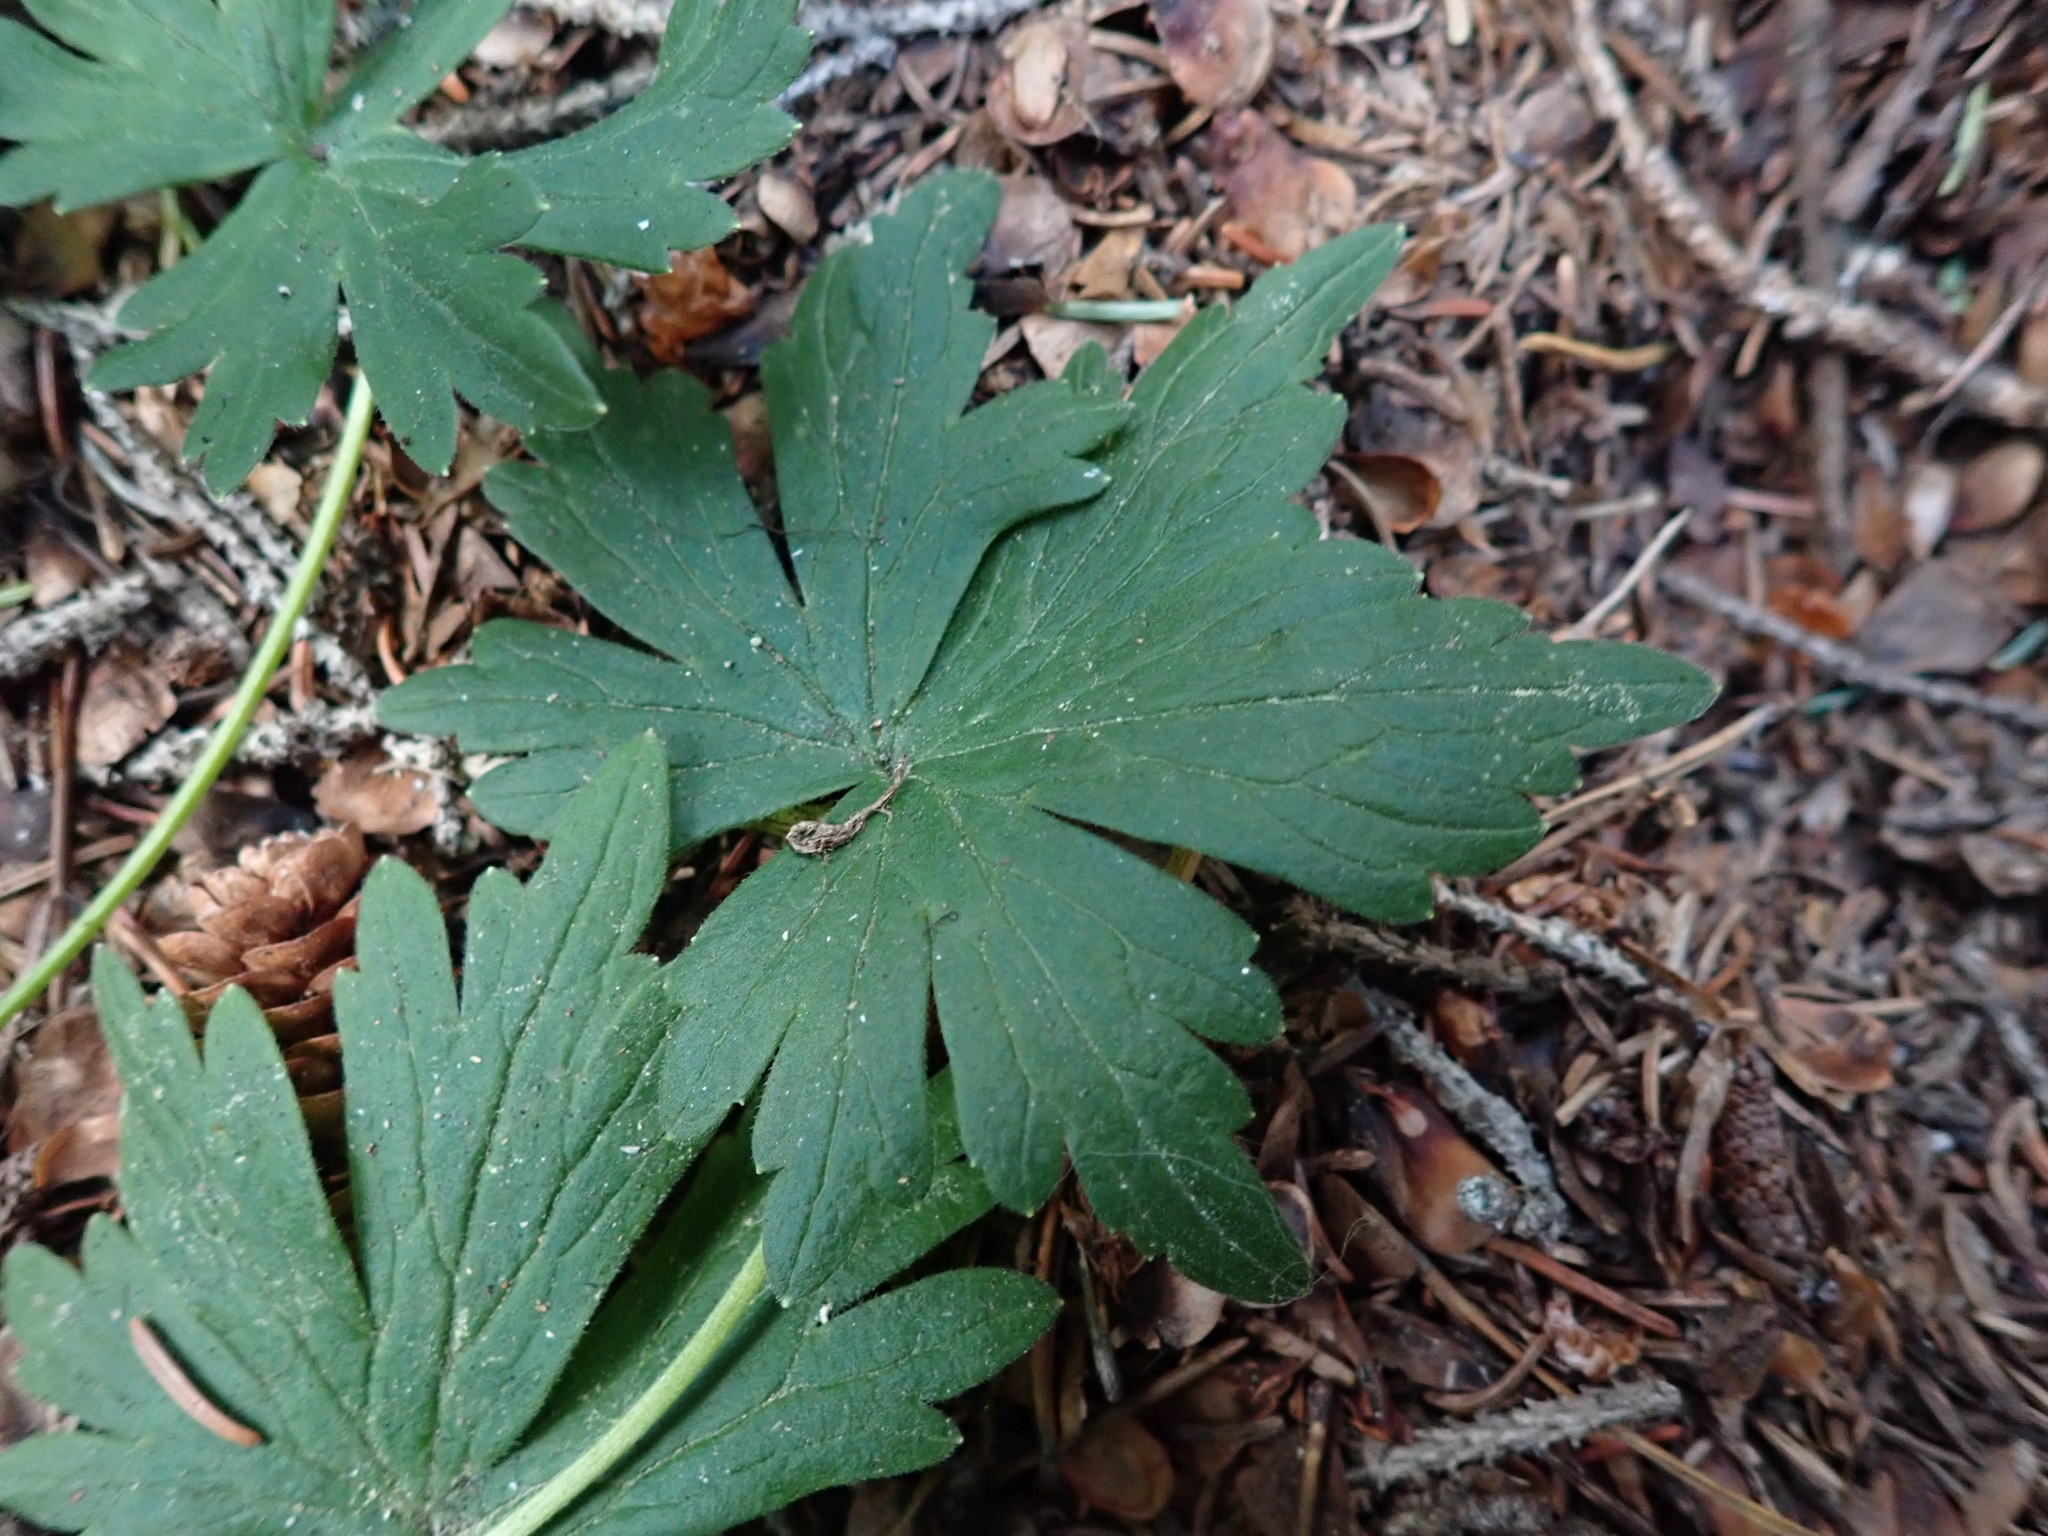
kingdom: Plantae
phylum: Tracheophyta
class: Magnoliopsida
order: Ranunculales
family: Ranunculaceae
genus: Delphinium
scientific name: Delphinium glaucum
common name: Brown's larkspur
